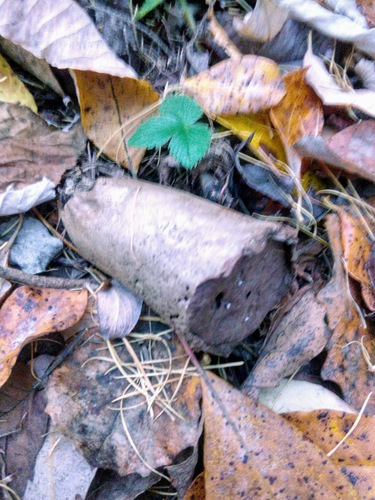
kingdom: Fungi
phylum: Basidiomycota
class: Agaricomycetes
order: Agaricales
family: Lycoperdaceae
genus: Lycoperdon
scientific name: Lycoperdon excipuliforme
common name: Pestle puffball
